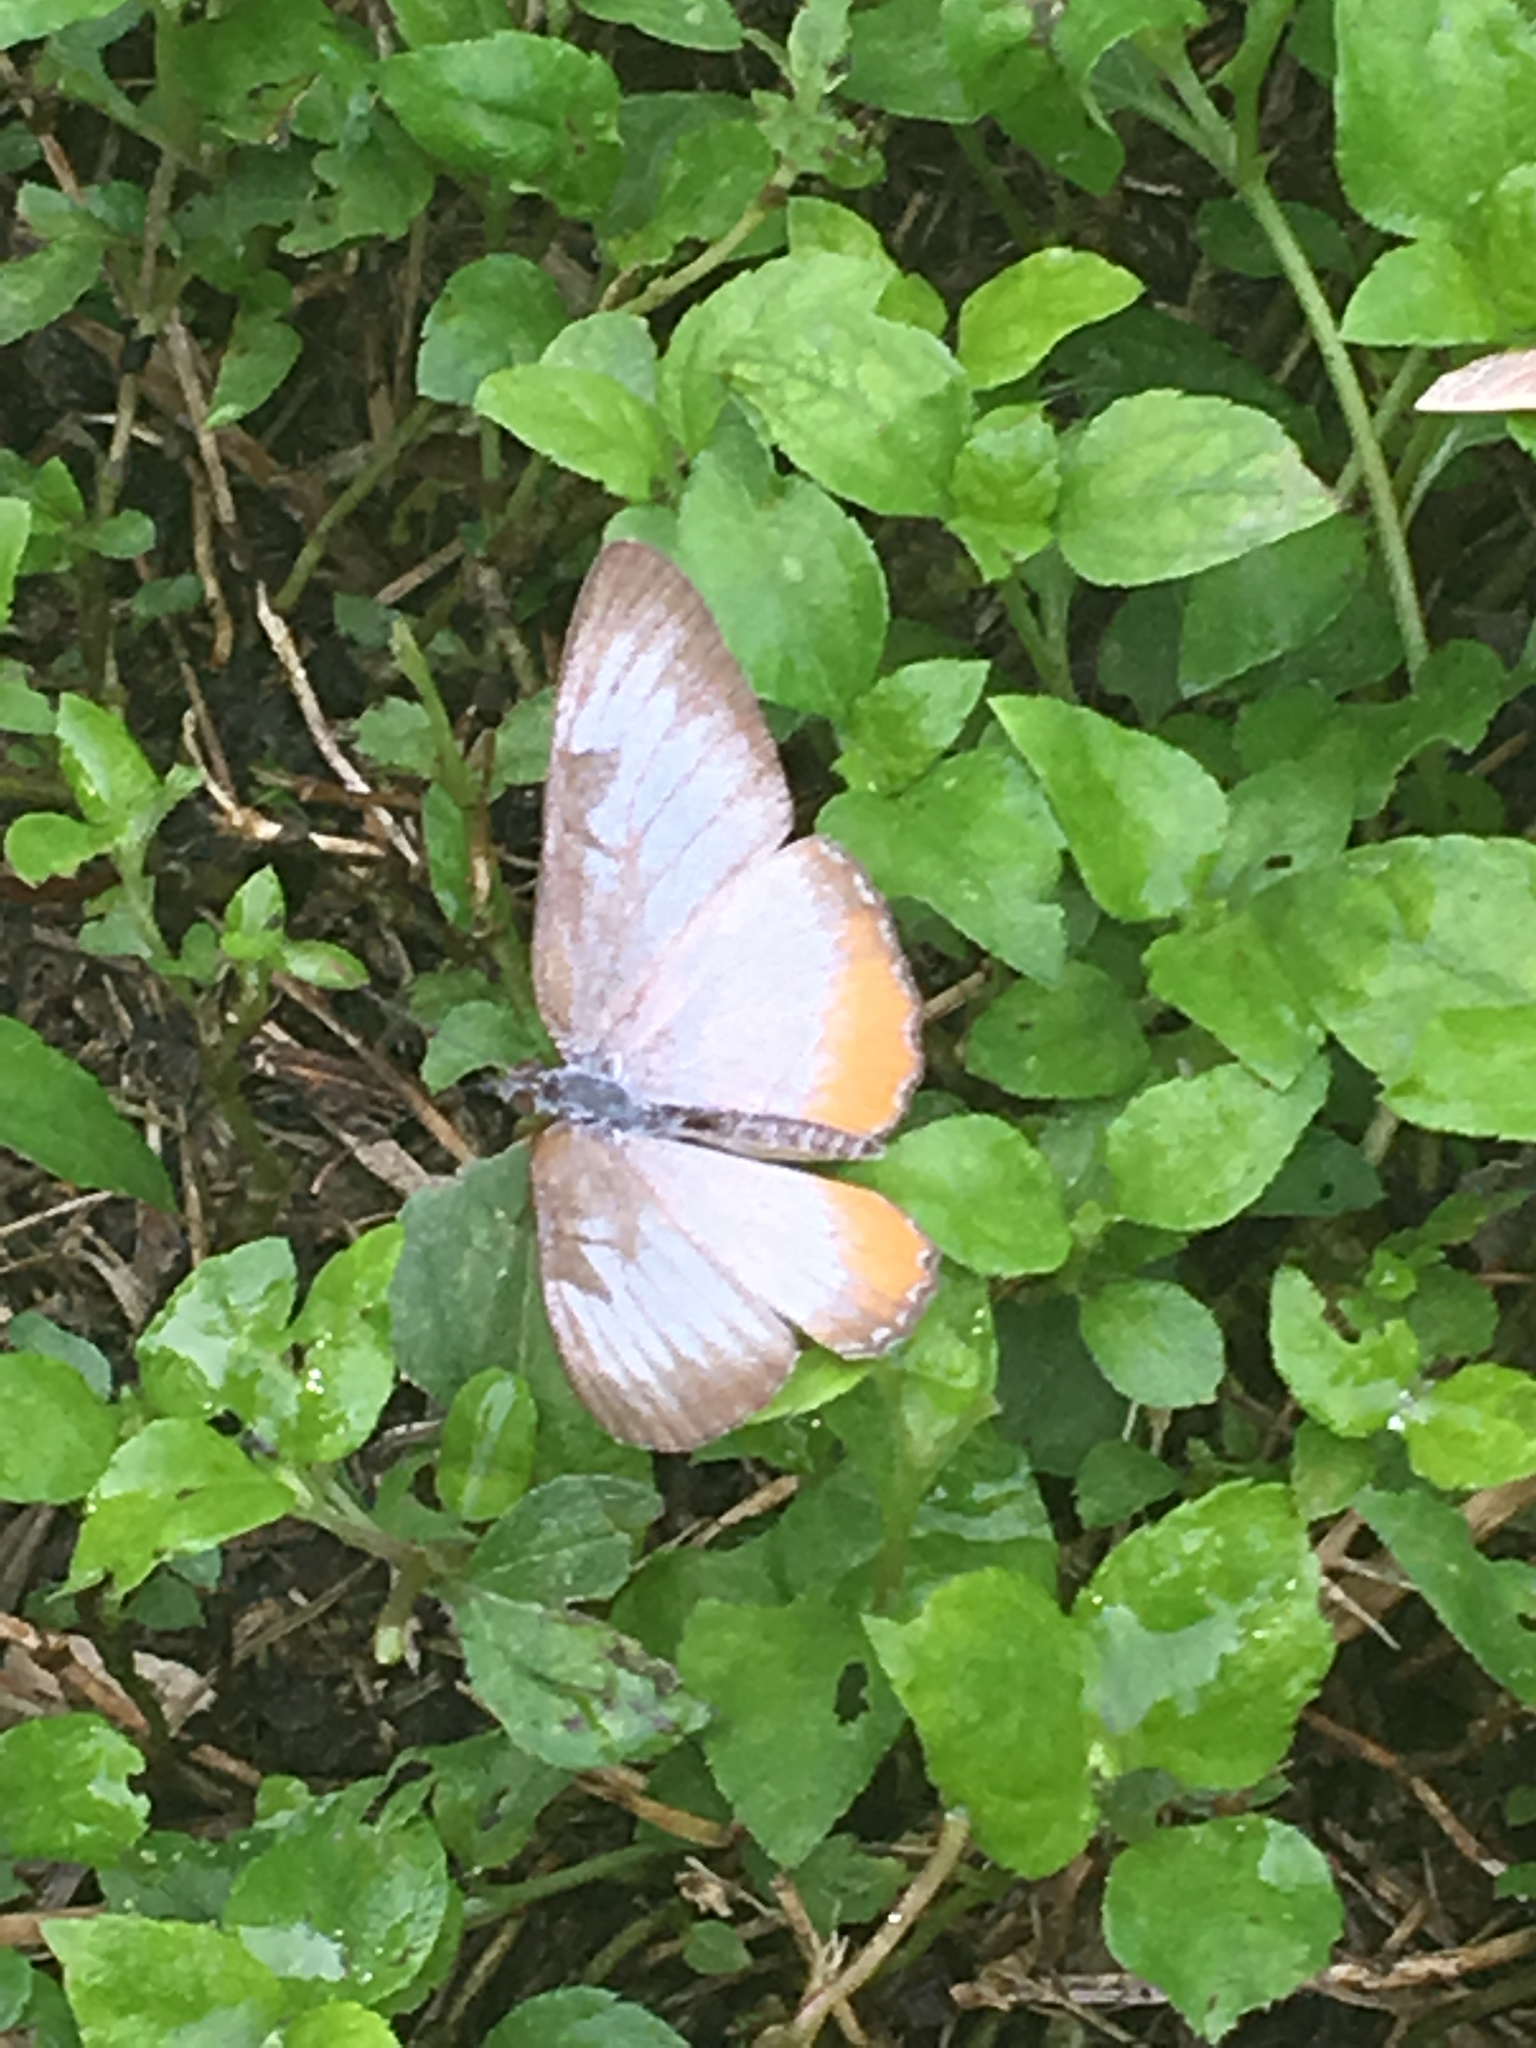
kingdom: Animalia
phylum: Arthropoda
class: Insecta
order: Lepidoptera
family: Nymphalidae
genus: Mestra
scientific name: Mestra amymone
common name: Common mestra
